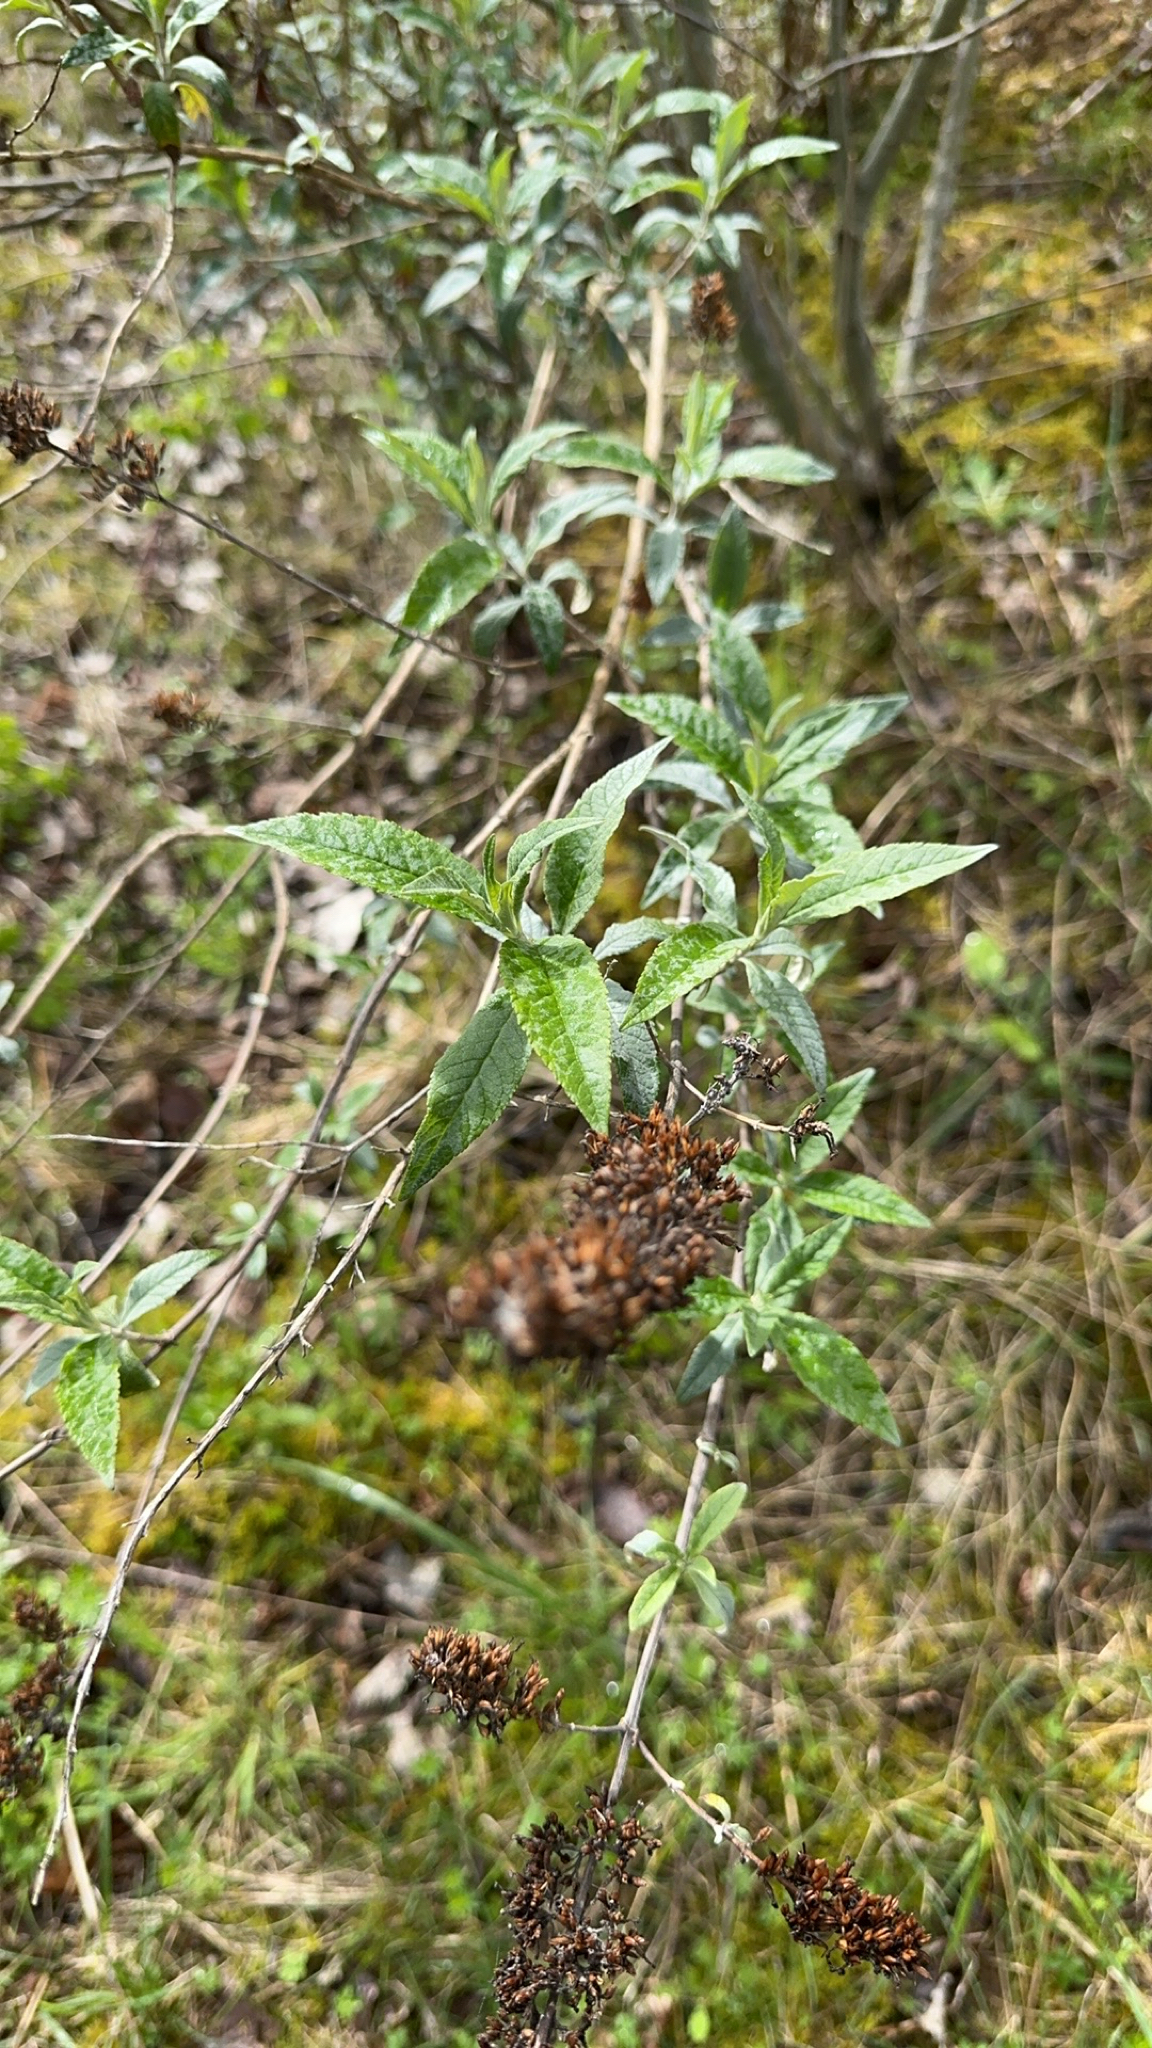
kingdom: Plantae
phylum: Tracheophyta
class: Magnoliopsida
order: Lamiales
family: Scrophulariaceae
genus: Buddleja
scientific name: Buddleja davidii
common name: Butterfly-bush
